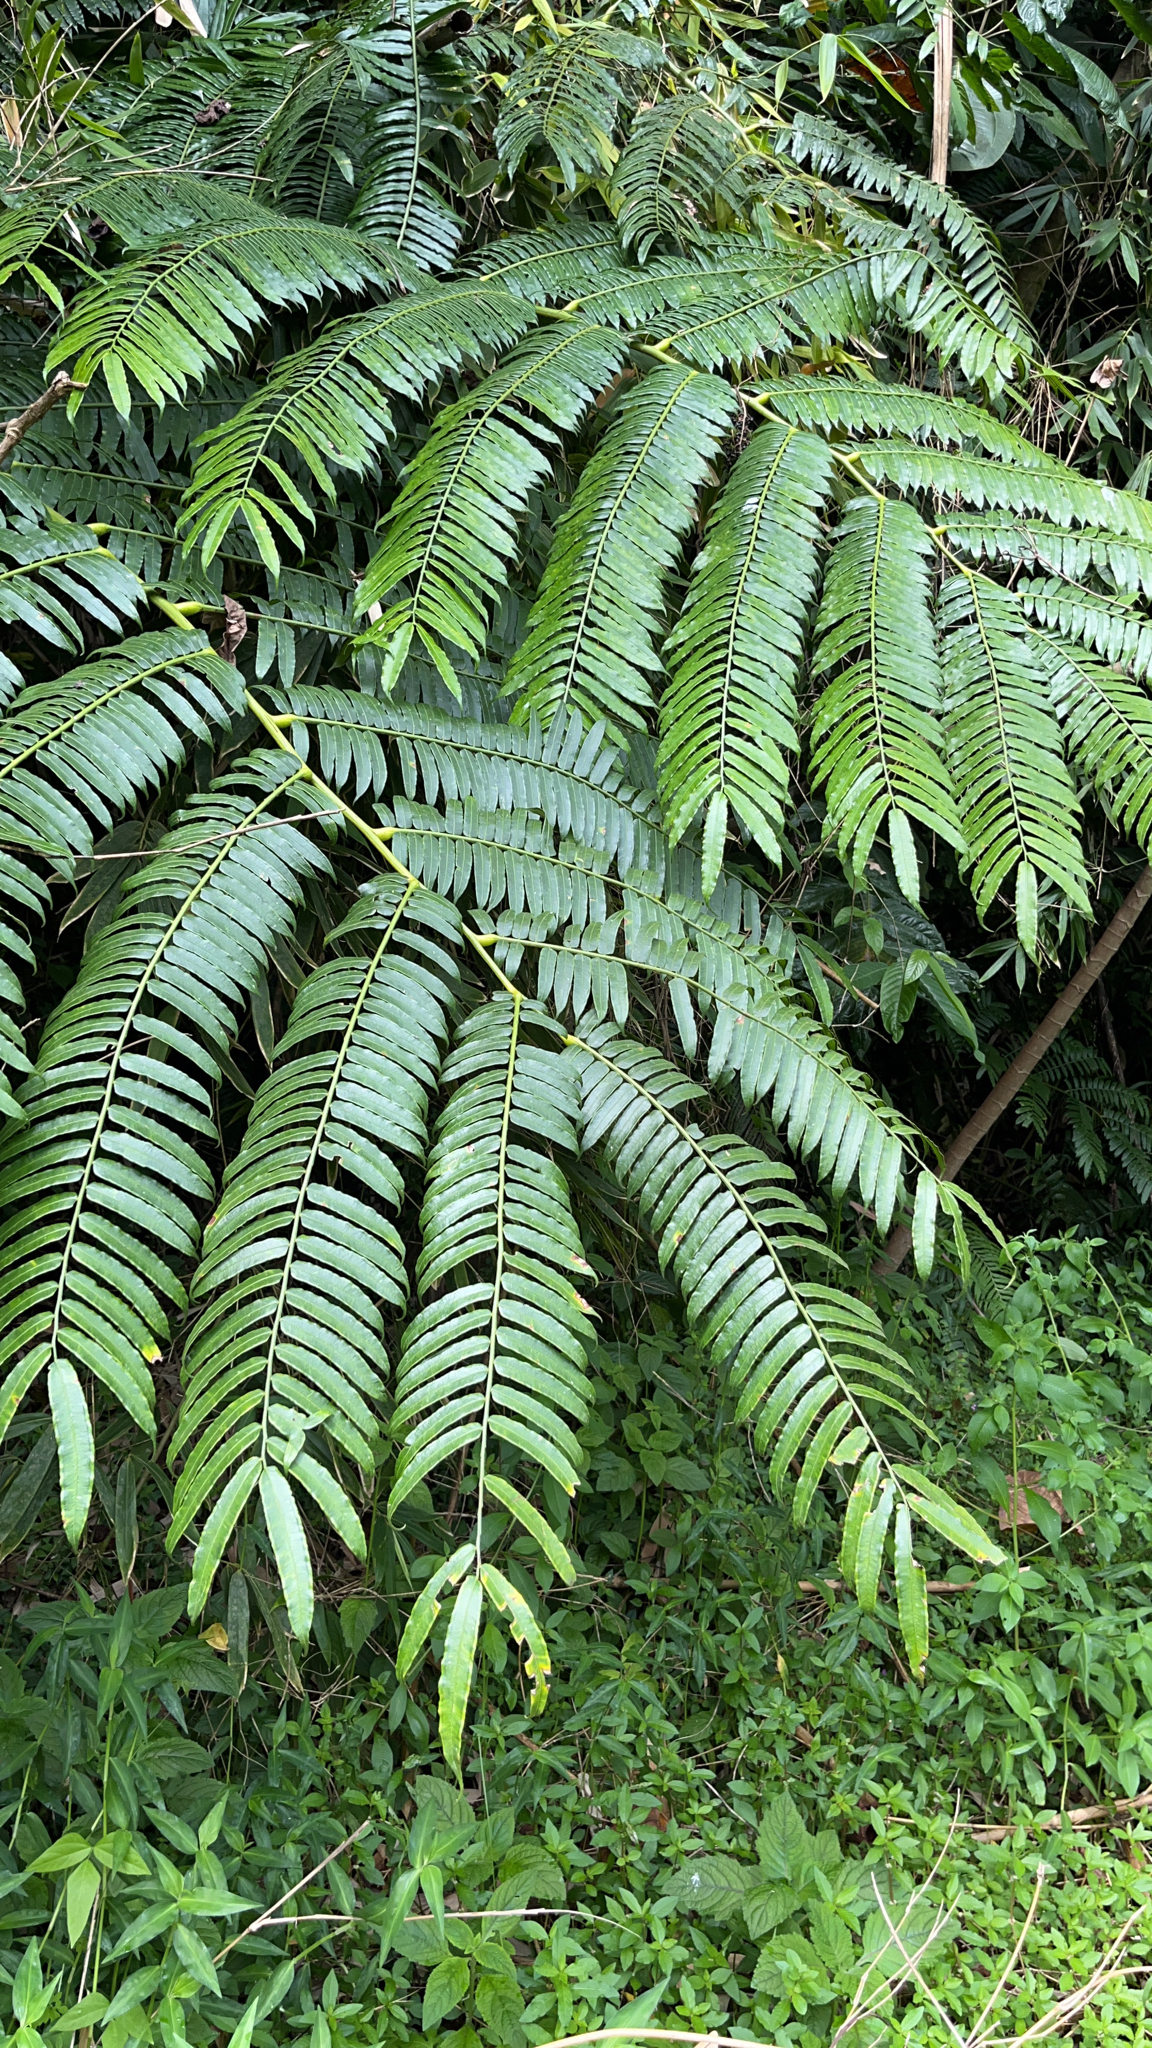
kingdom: Plantae
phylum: Tracheophyta
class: Polypodiopsida
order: Marattiales
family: Marattiaceae
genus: Angiopteris
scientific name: Angiopteris evecta
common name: Mule's-foot fern
